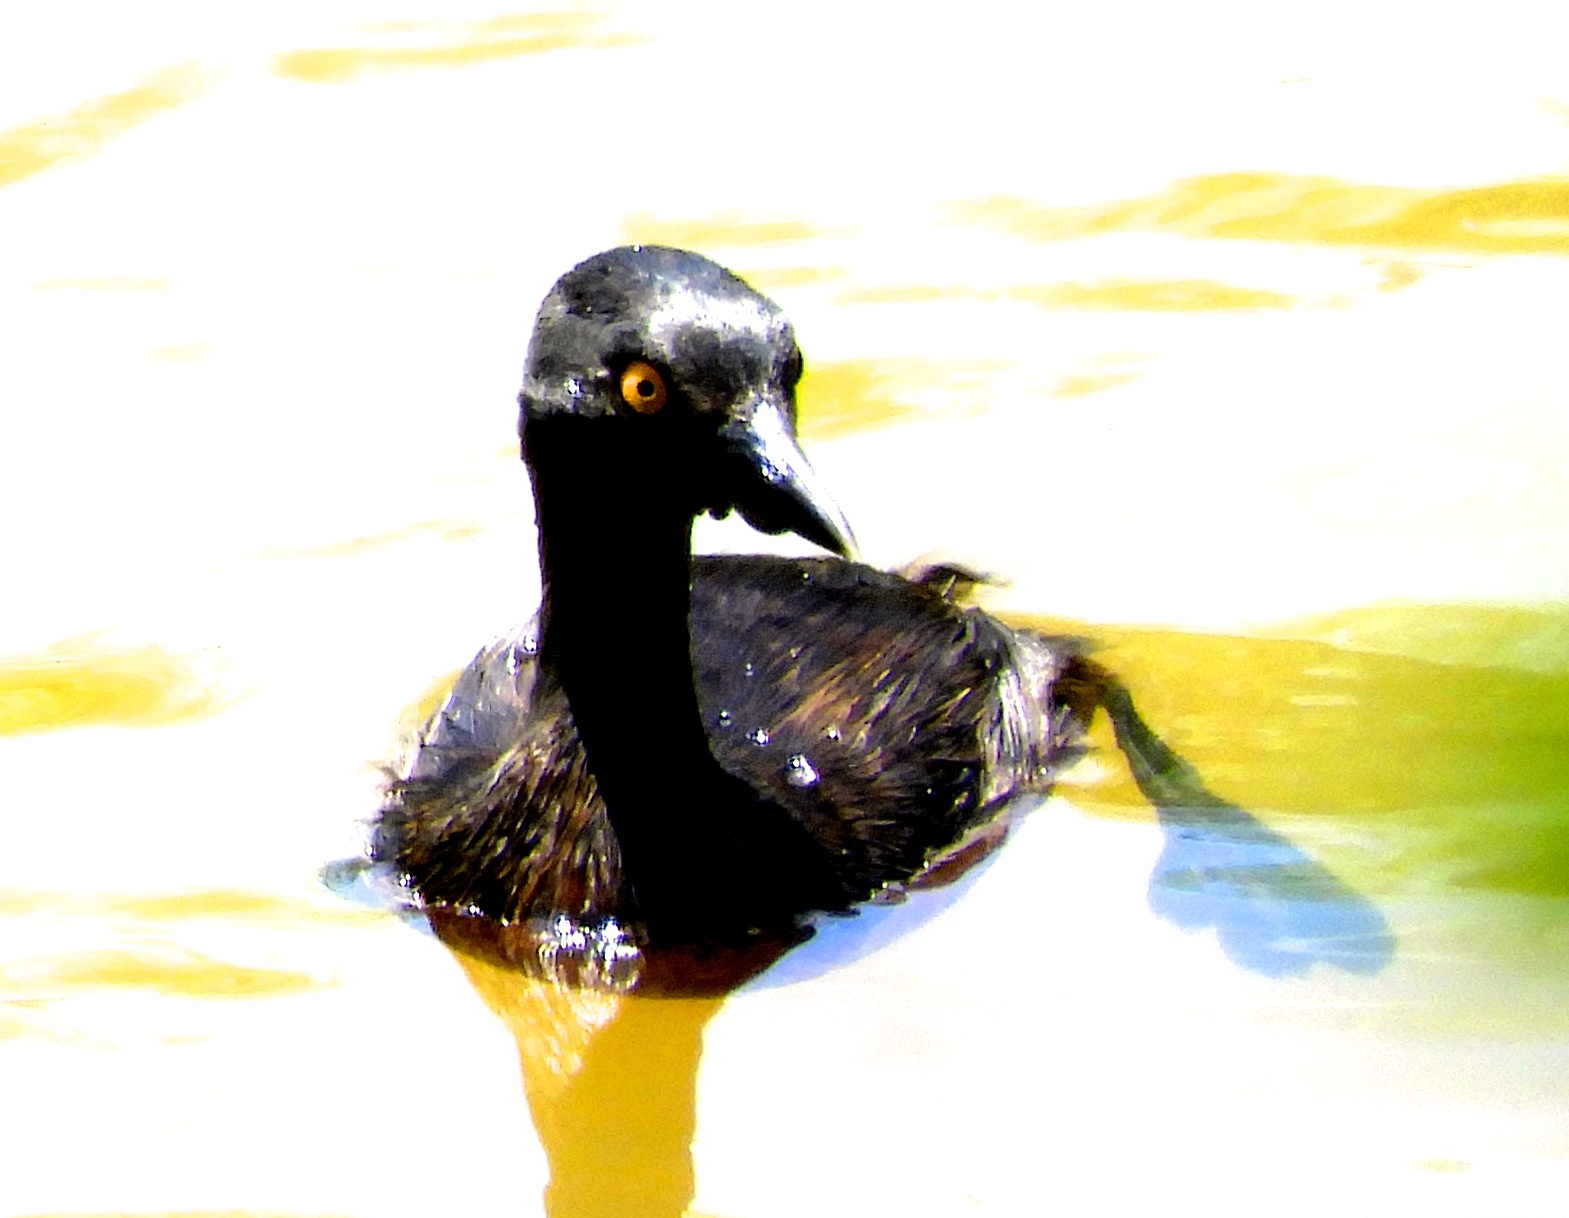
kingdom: Animalia
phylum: Chordata
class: Aves
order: Podicipediformes
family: Podicipedidae
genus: Tachybaptus
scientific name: Tachybaptus dominicus
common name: Least grebe
